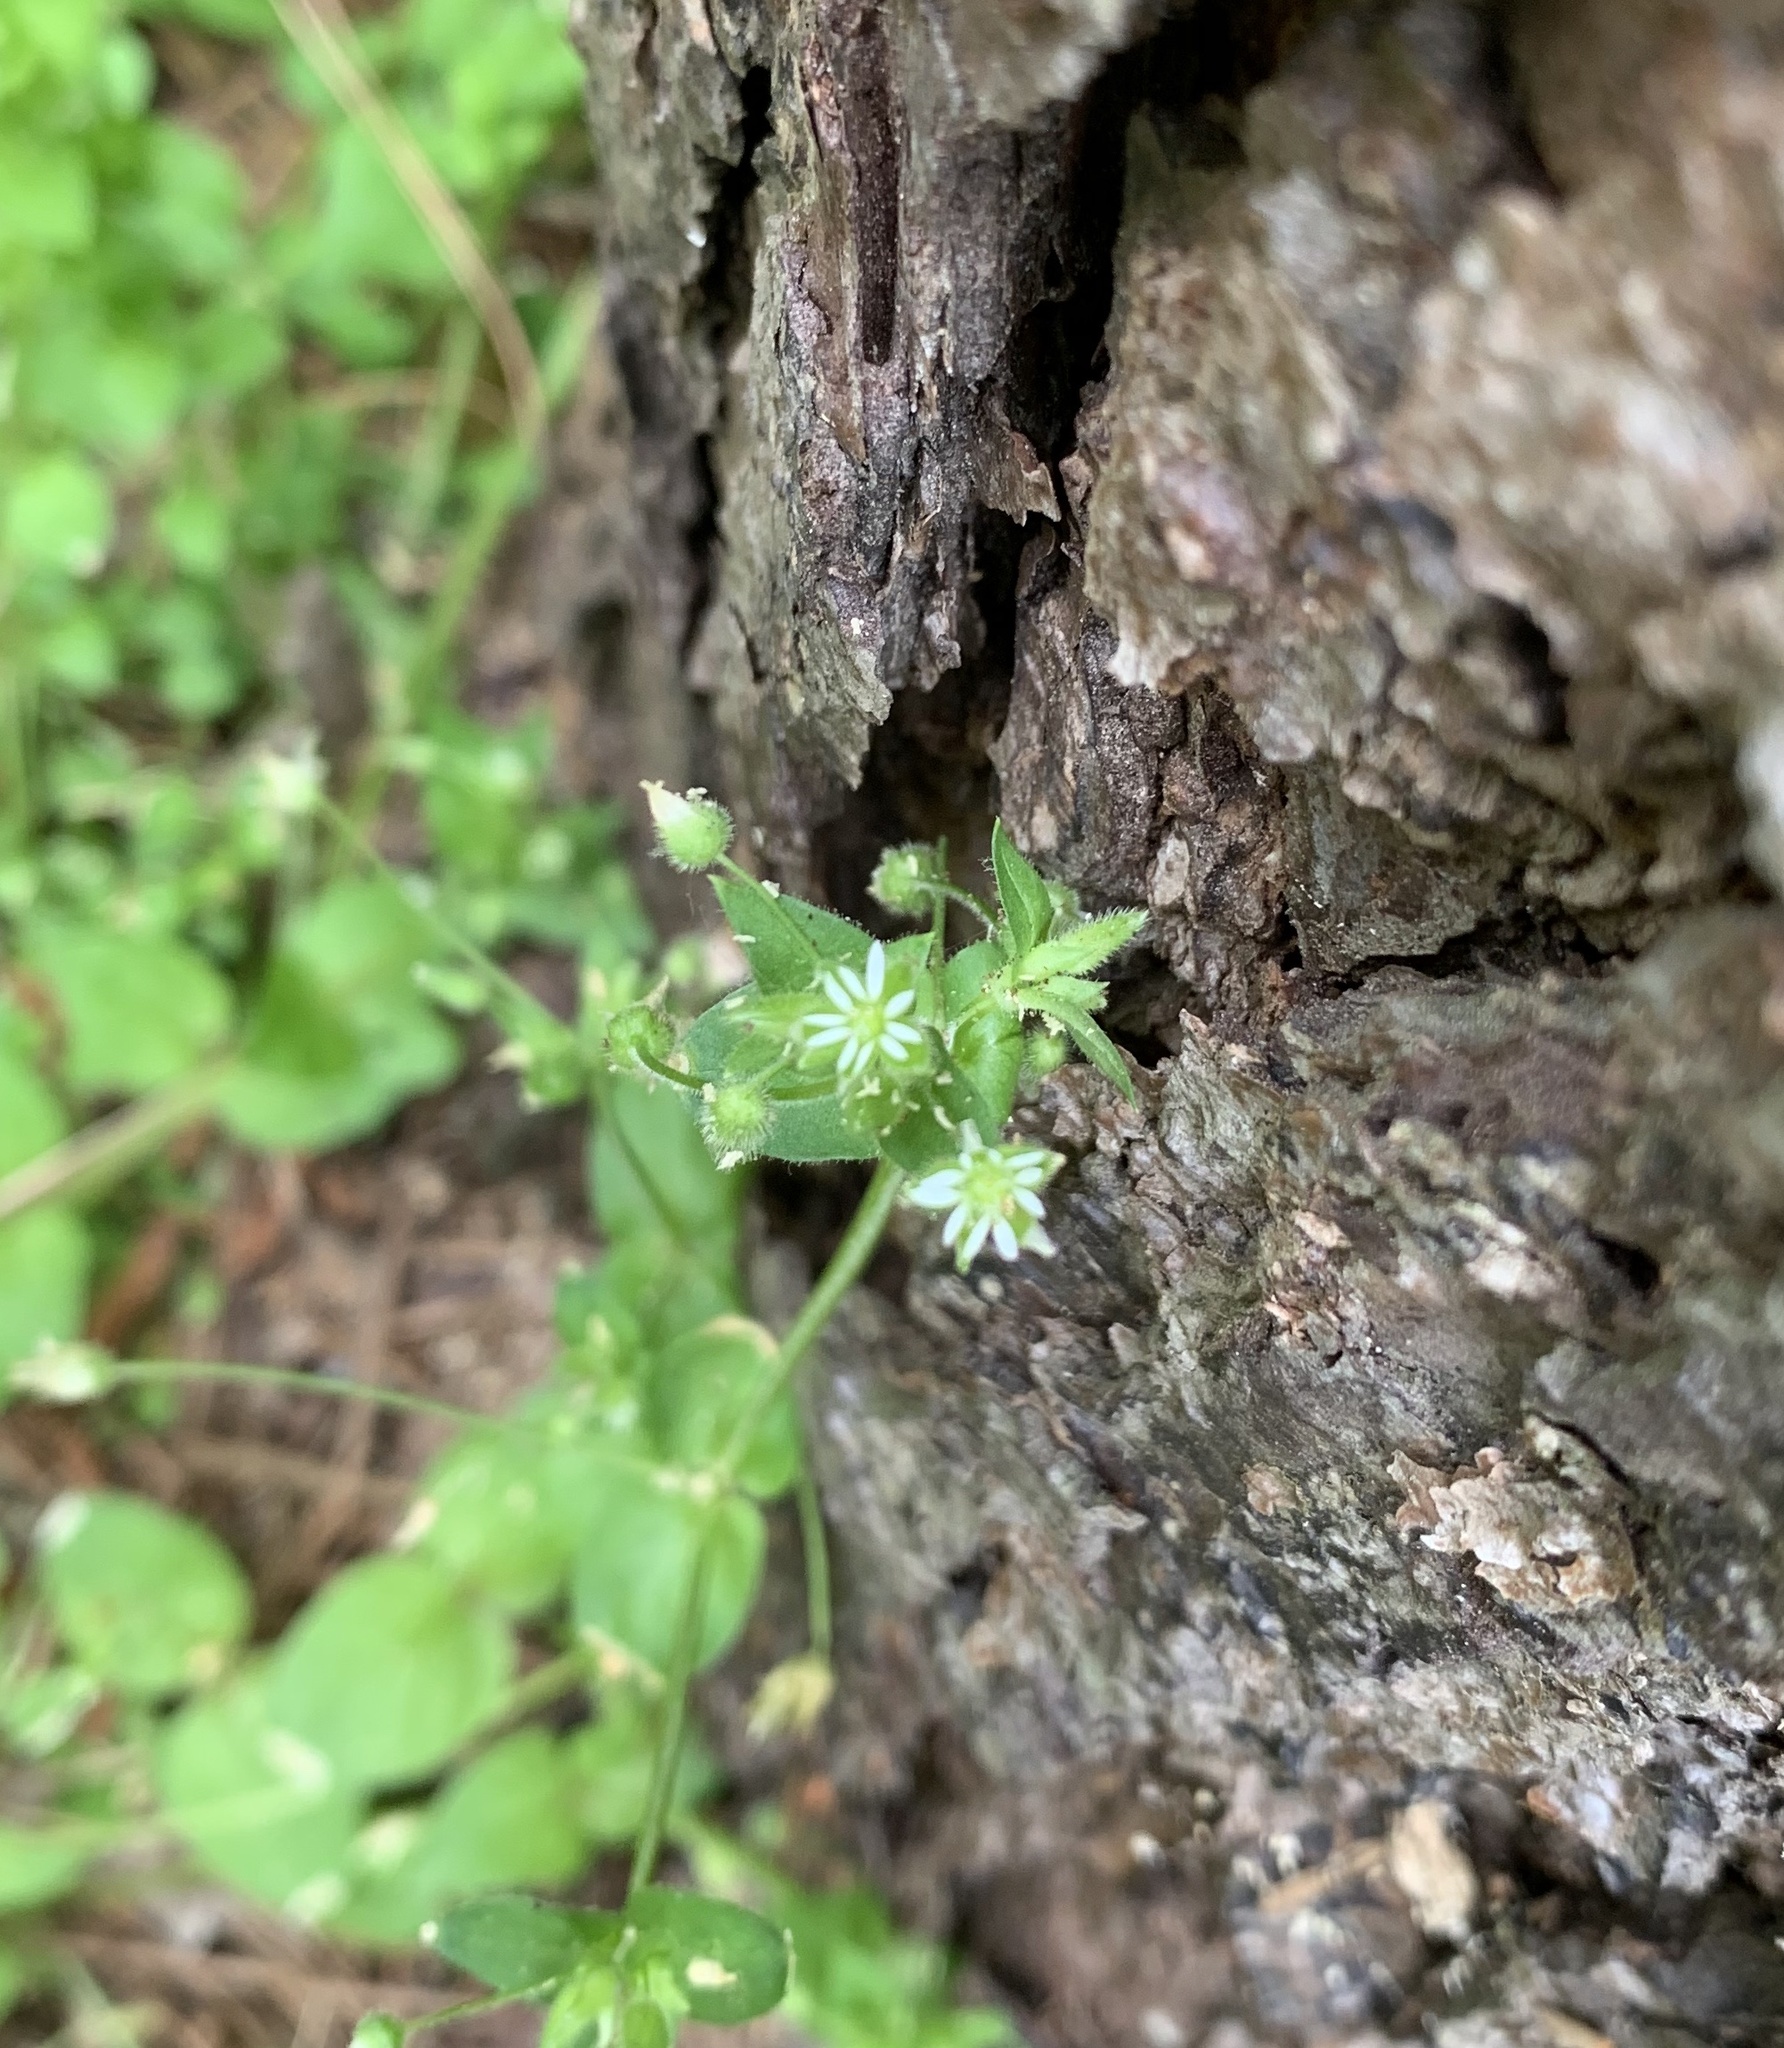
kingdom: Plantae
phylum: Tracheophyta
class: Magnoliopsida
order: Caryophyllales
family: Caryophyllaceae
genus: Stellaria
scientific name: Stellaria media
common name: Common chickweed
